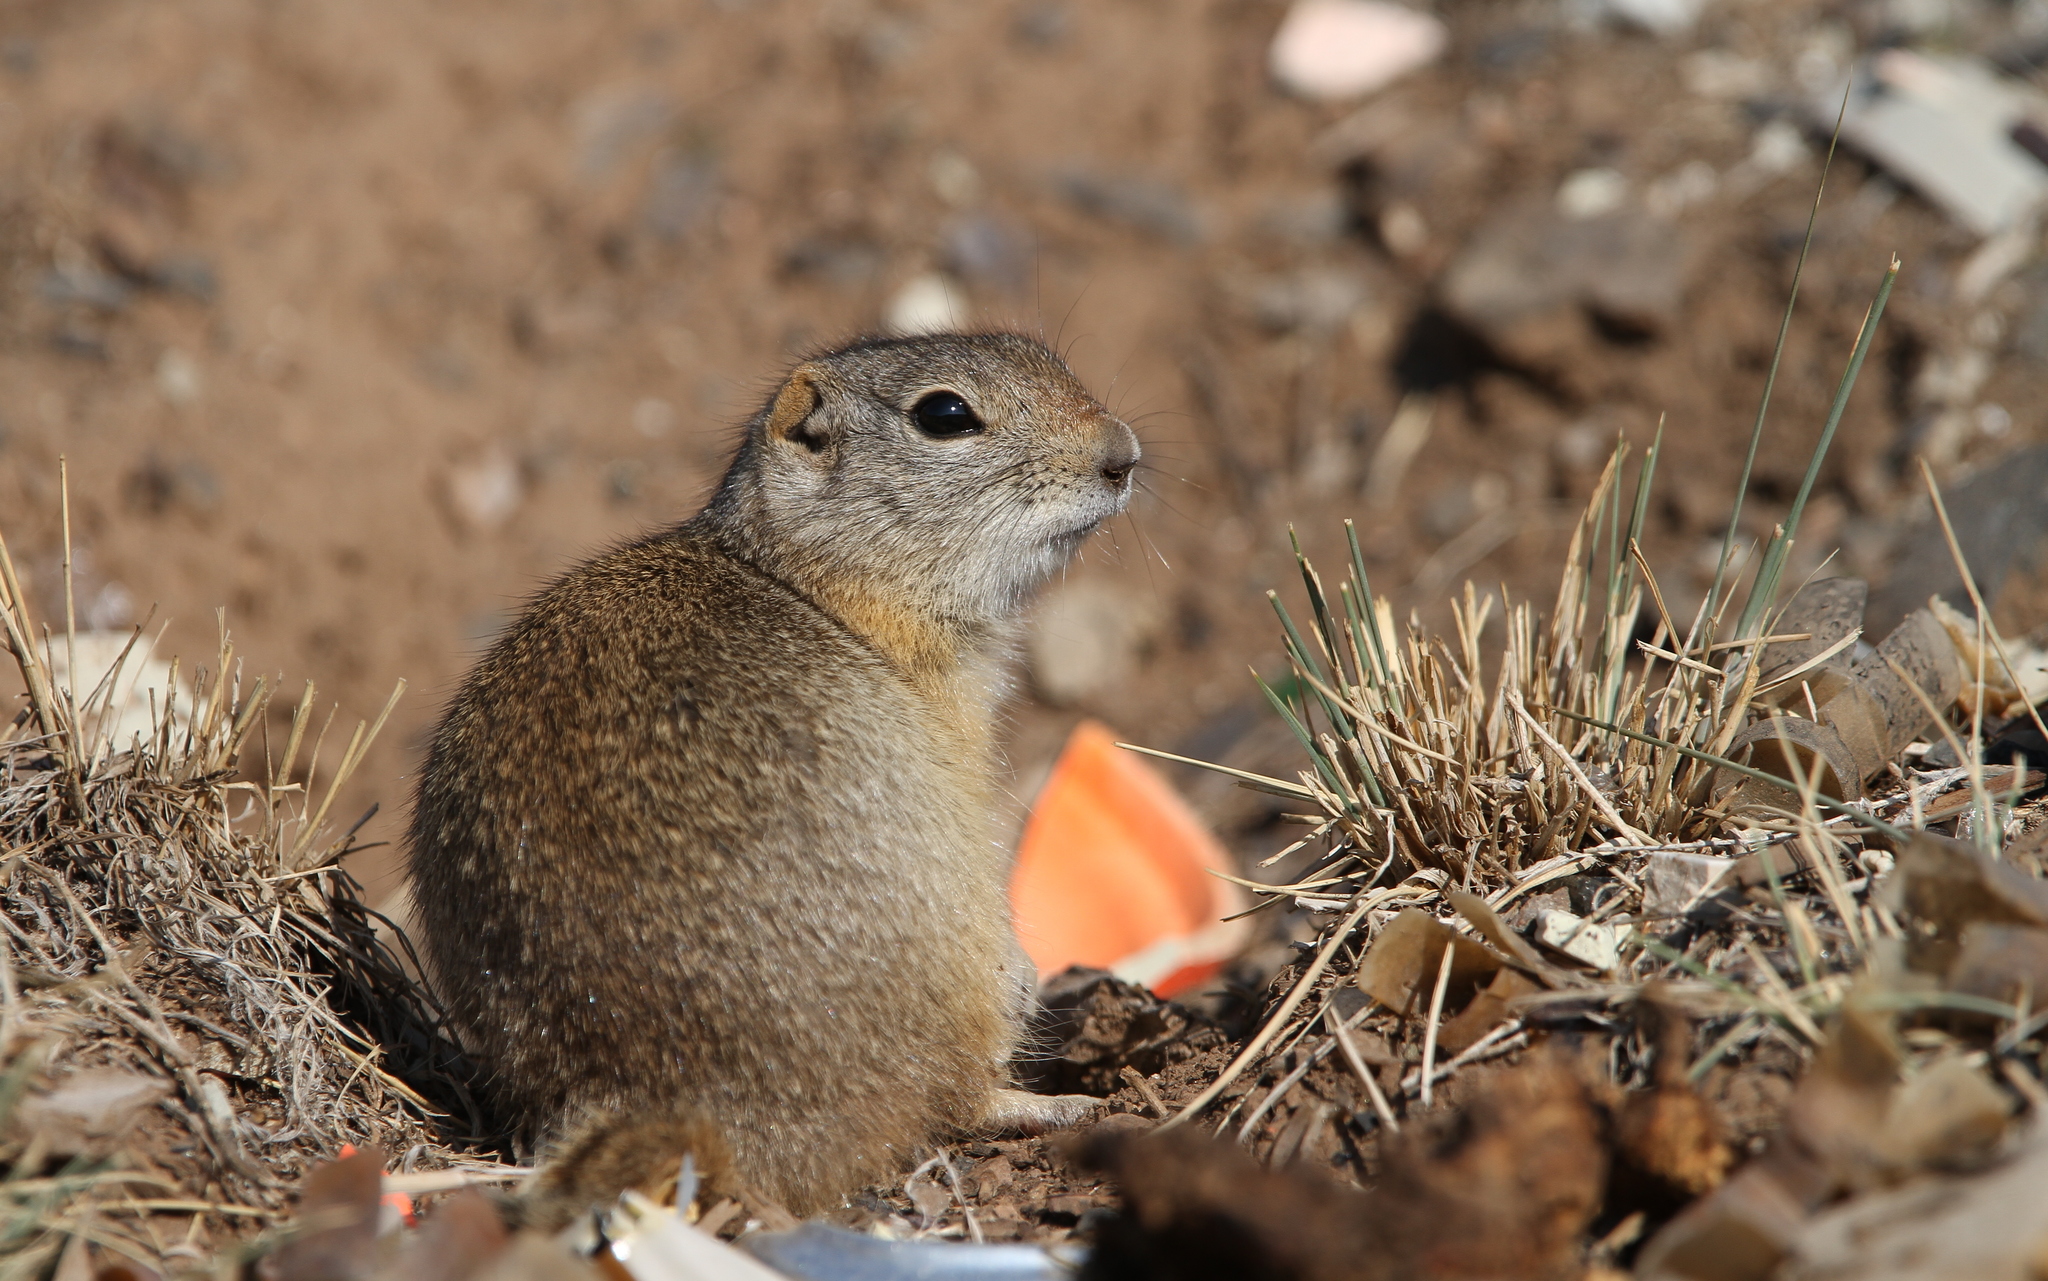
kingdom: Animalia
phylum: Chordata
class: Mammalia
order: Rodentia
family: Sciuridae
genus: Urocitellus
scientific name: Urocitellus elegans
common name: Wyoming ground squirrel
